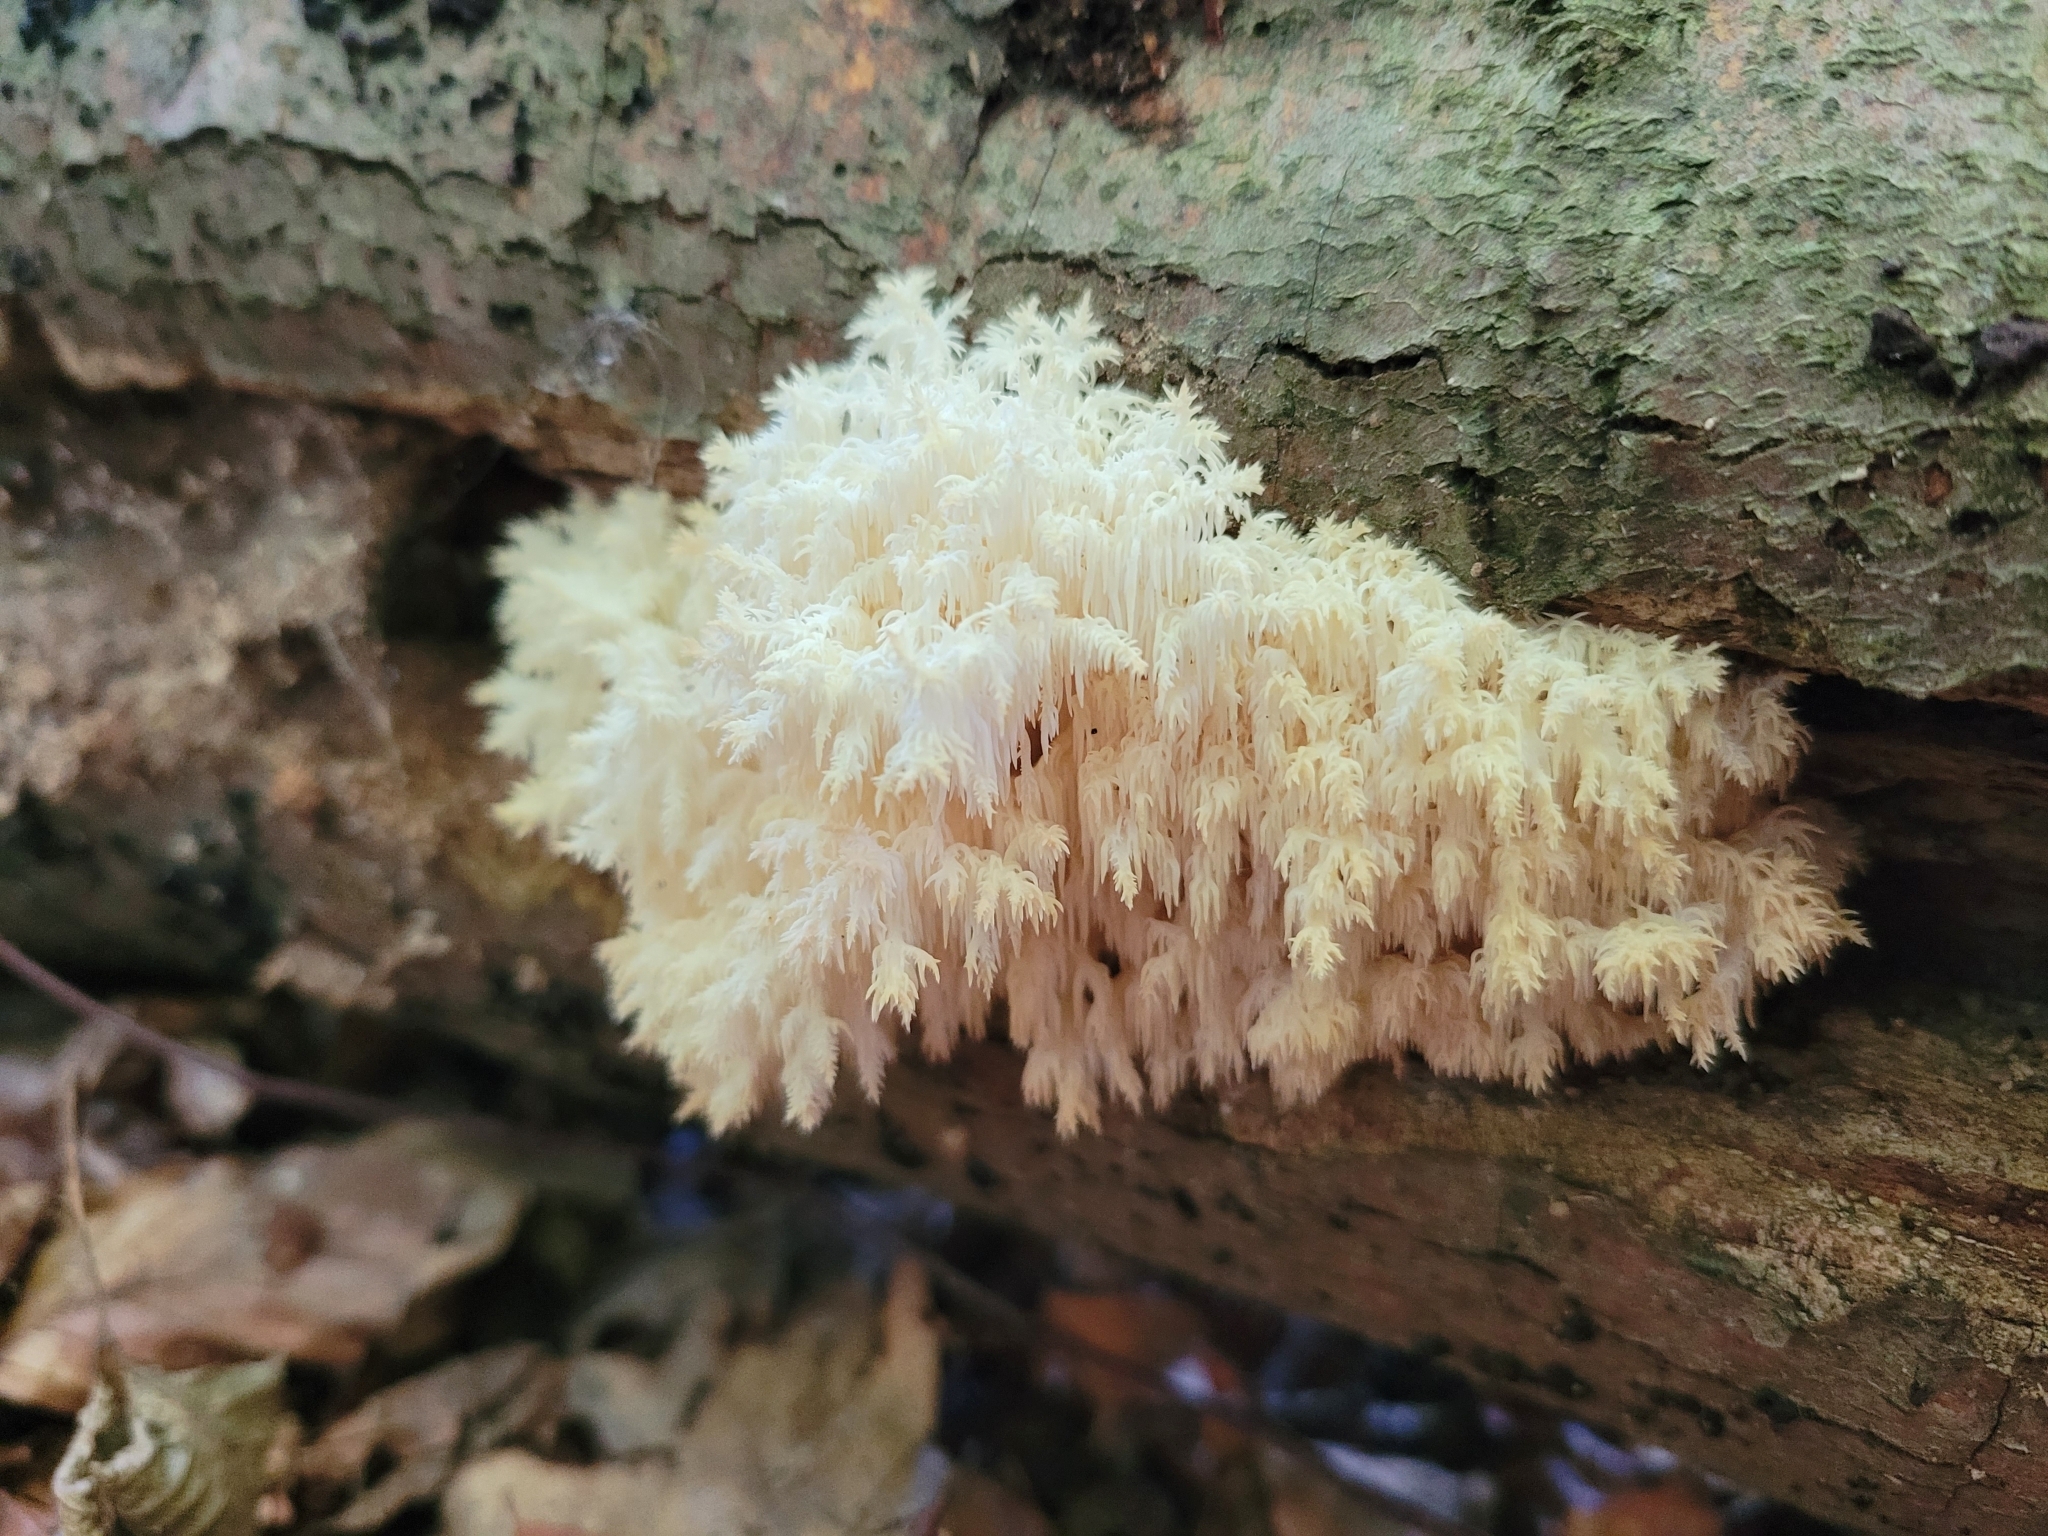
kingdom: Fungi
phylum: Basidiomycota
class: Agaricomycetes
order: Russulales
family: Hericiaceae
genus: Hericium
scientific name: Hericium coralloides
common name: Coral tooth
